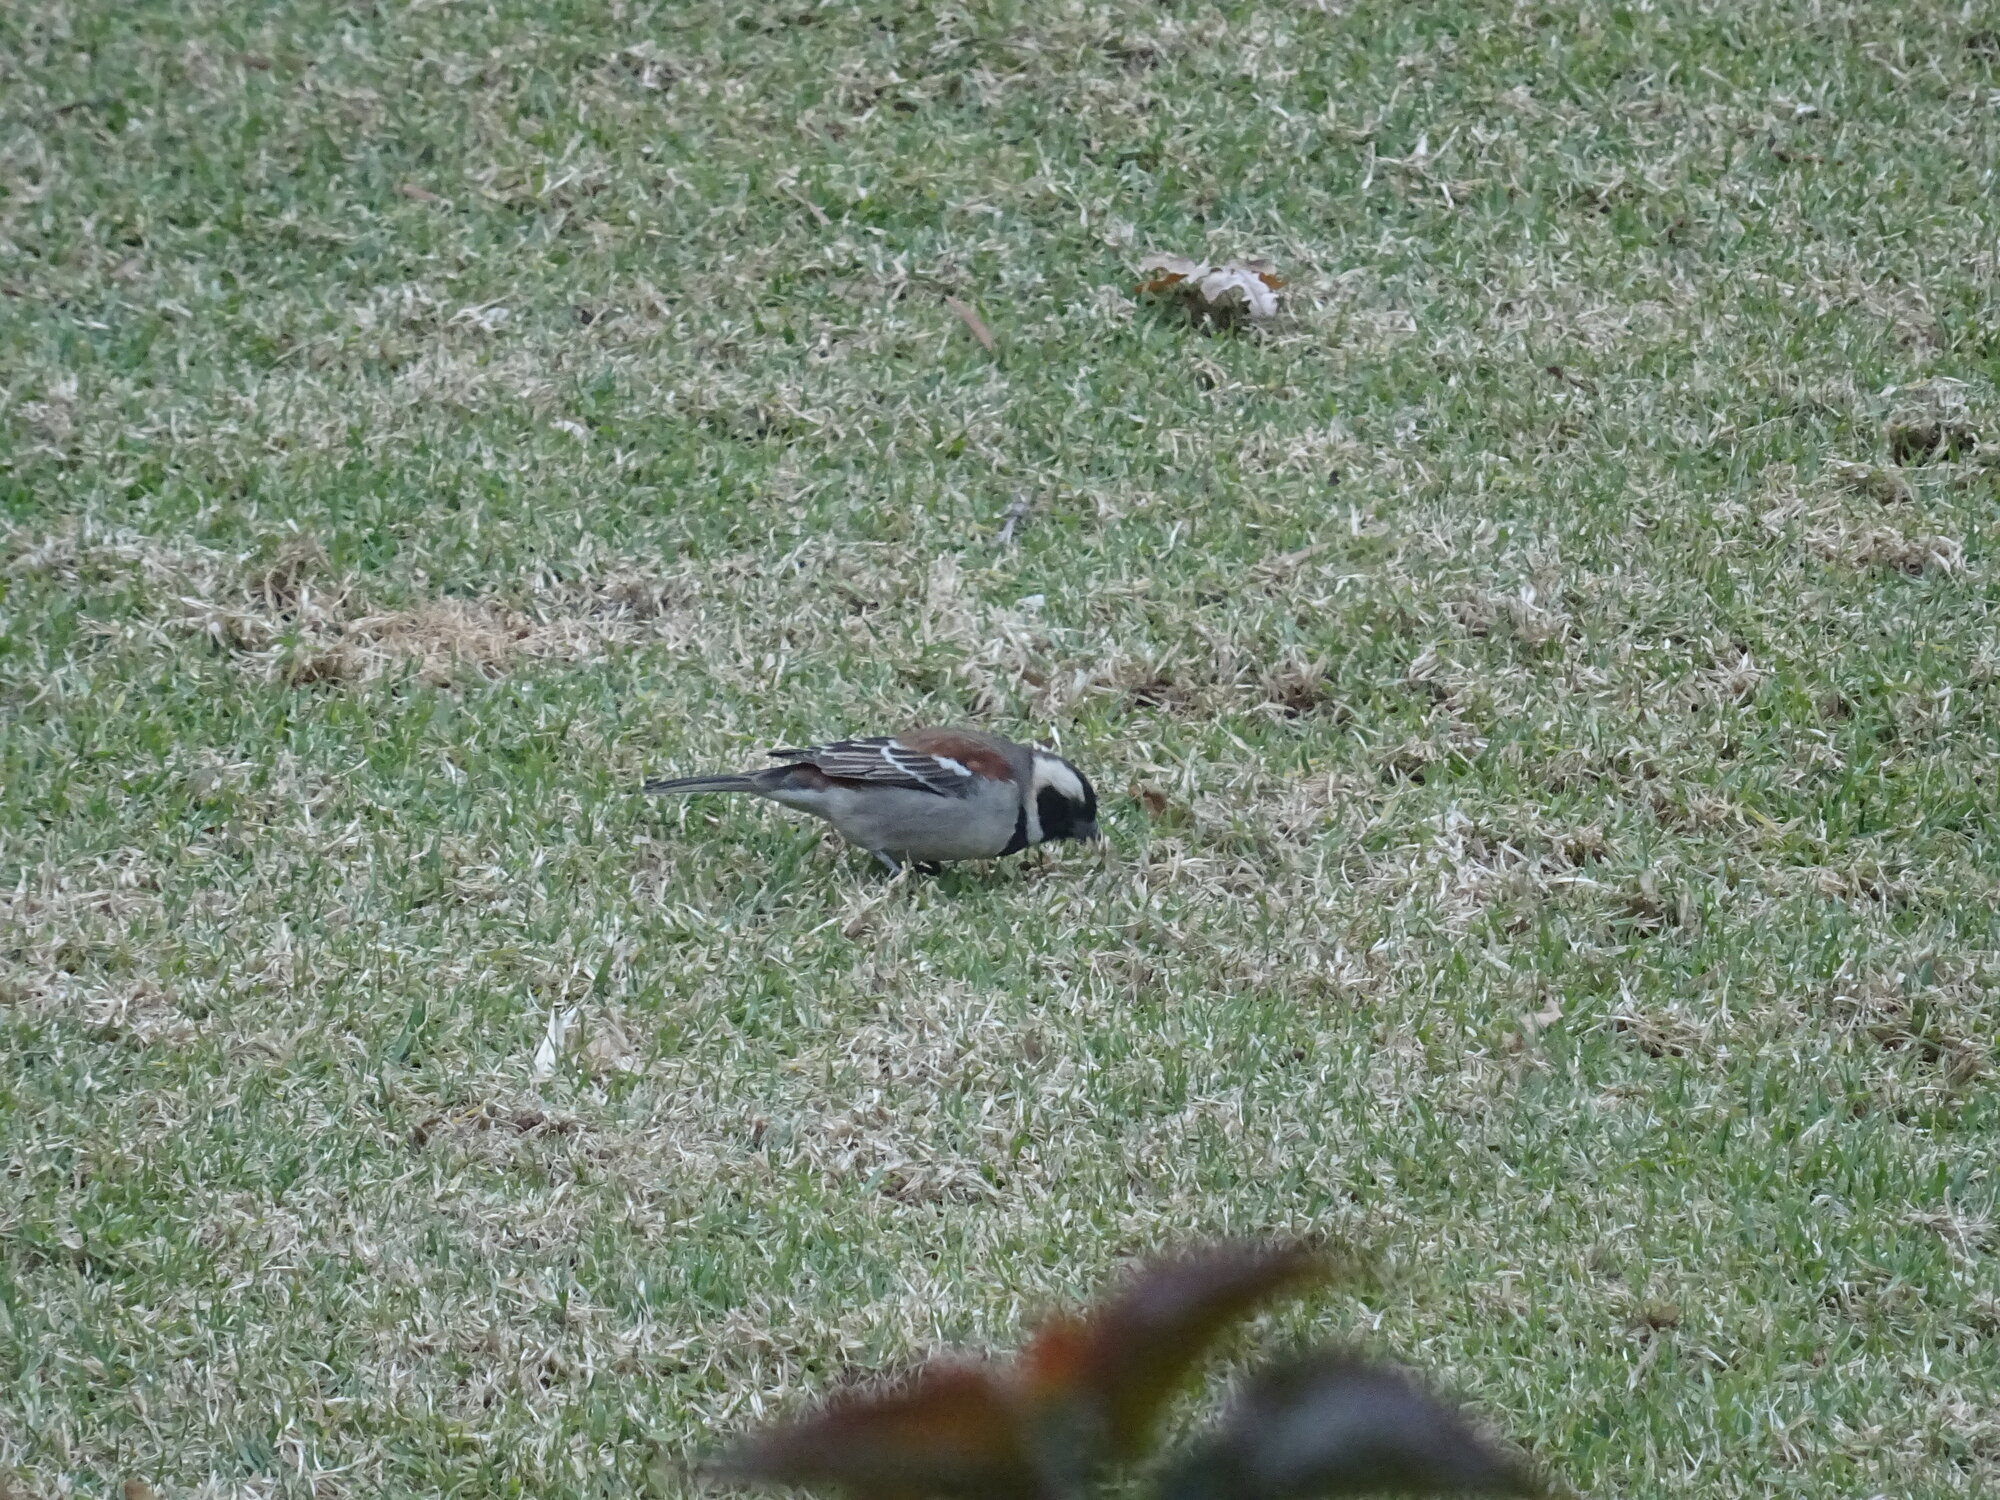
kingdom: Animalia
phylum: Chordata
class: Aves
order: Passeriformes
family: Passeridae
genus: Passer
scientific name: Passer melanurus
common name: Cape sparrow
